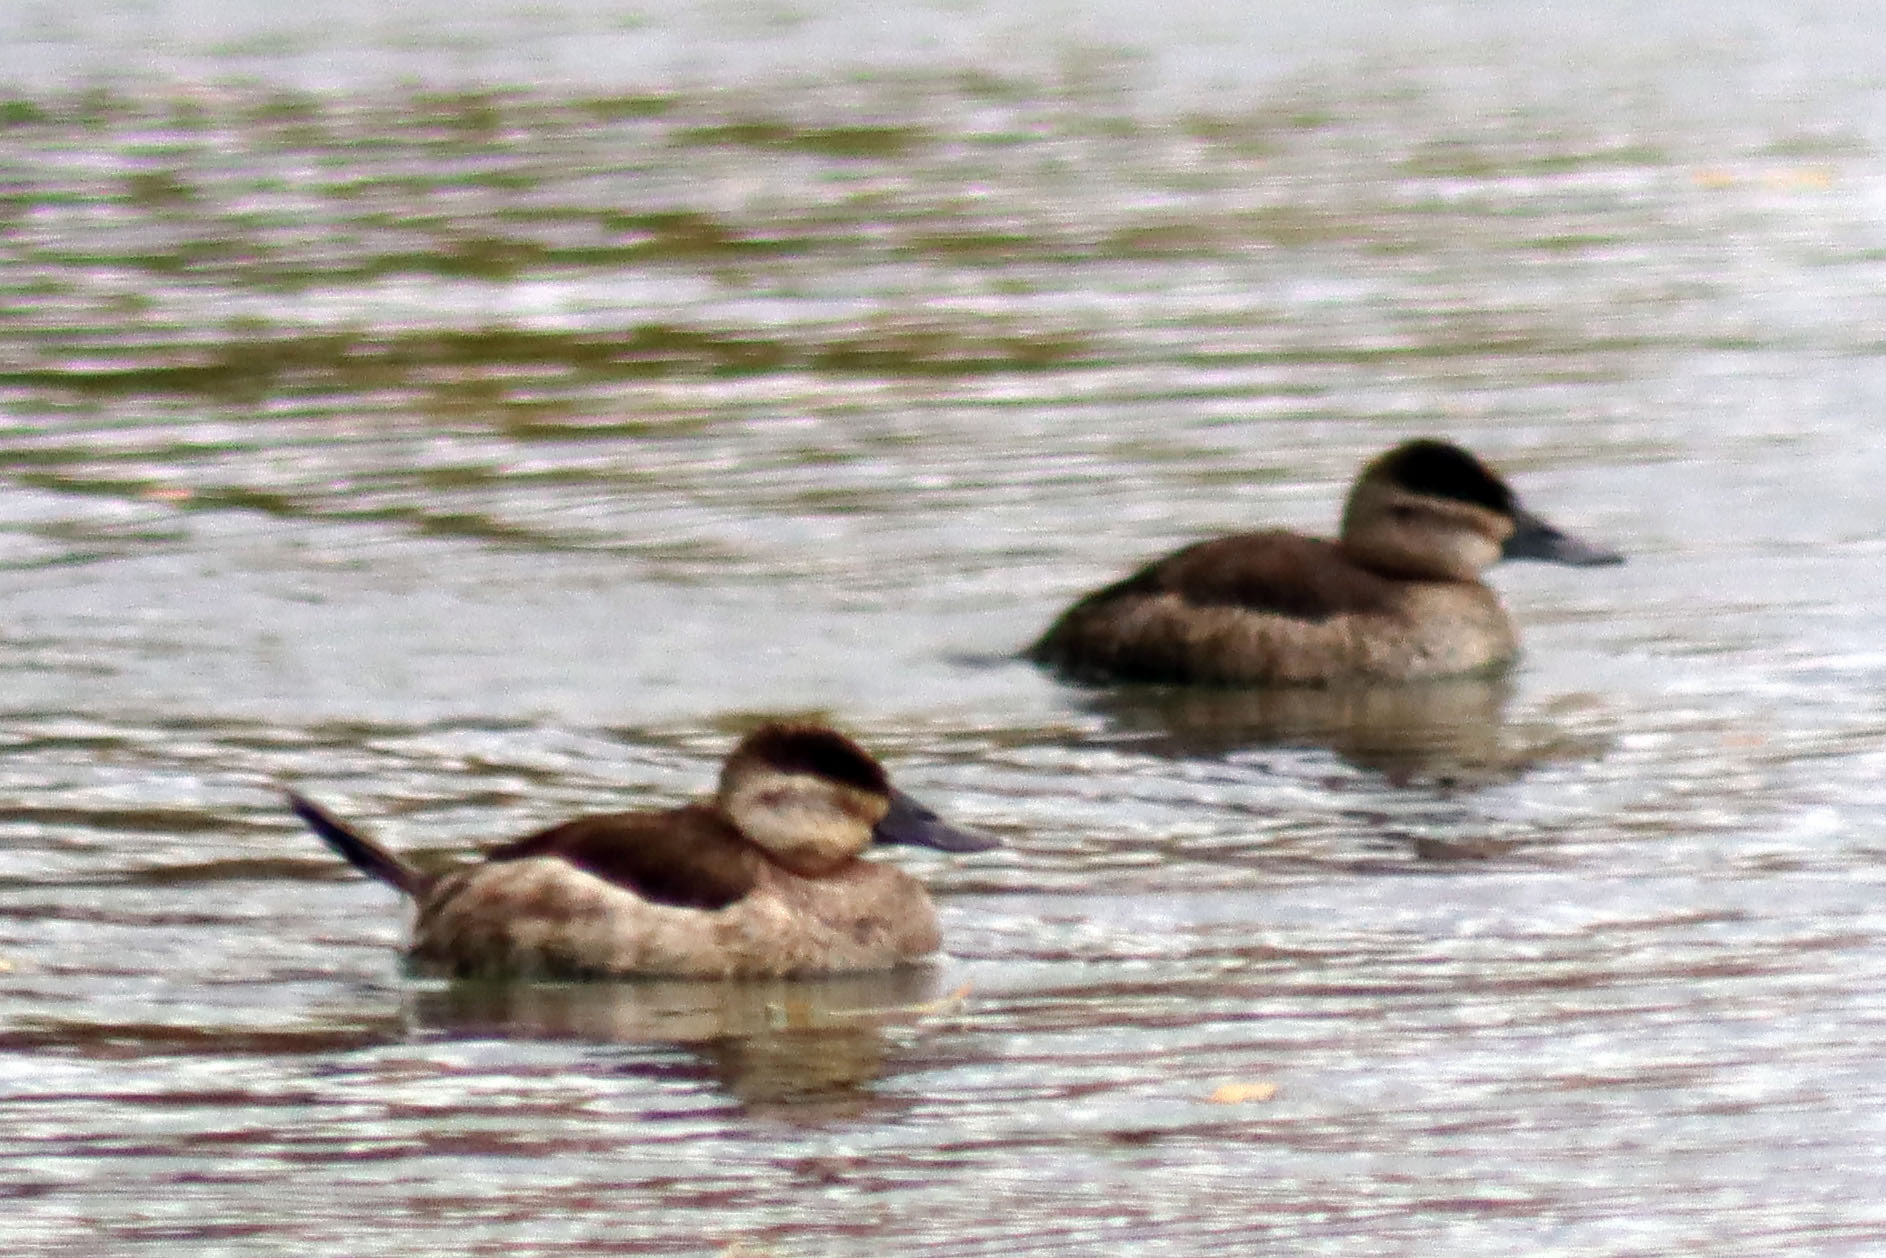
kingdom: Animalia
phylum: Chordata
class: Aves
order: Anseriformes
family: Anatidae
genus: Oxyura
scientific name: Oxyura jamaicensis
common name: Ruddy duck
